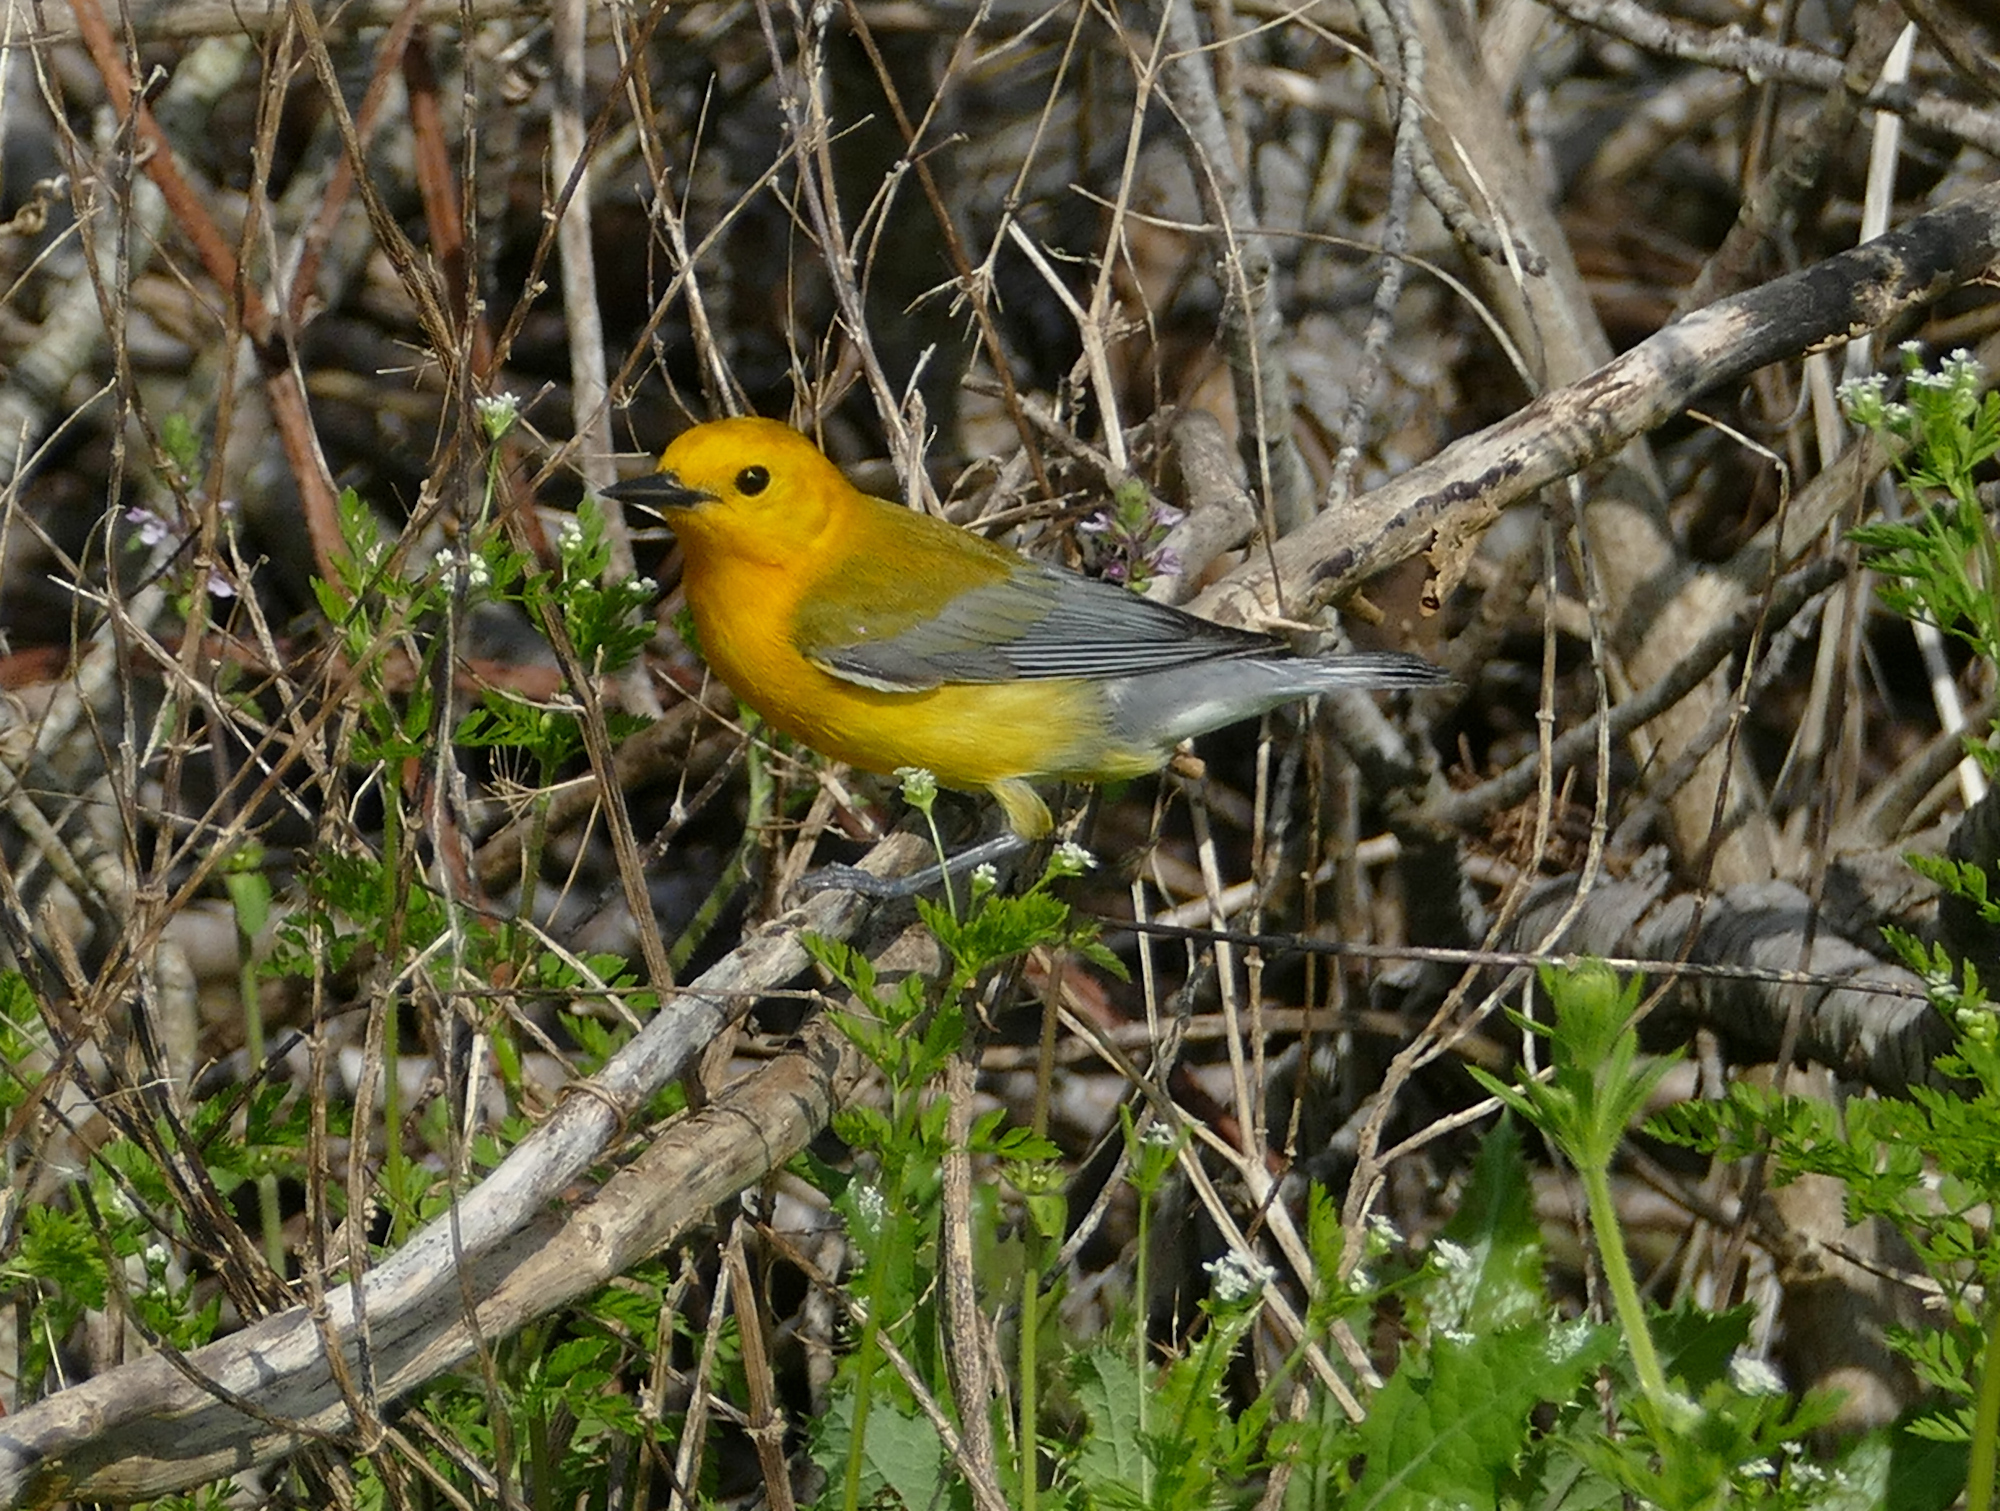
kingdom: Animalia
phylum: Chordata
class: Aves
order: Passeriformes
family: Parulidae
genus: Protonotaria
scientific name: Protonotaria citrea
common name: Prothonotary warbler
